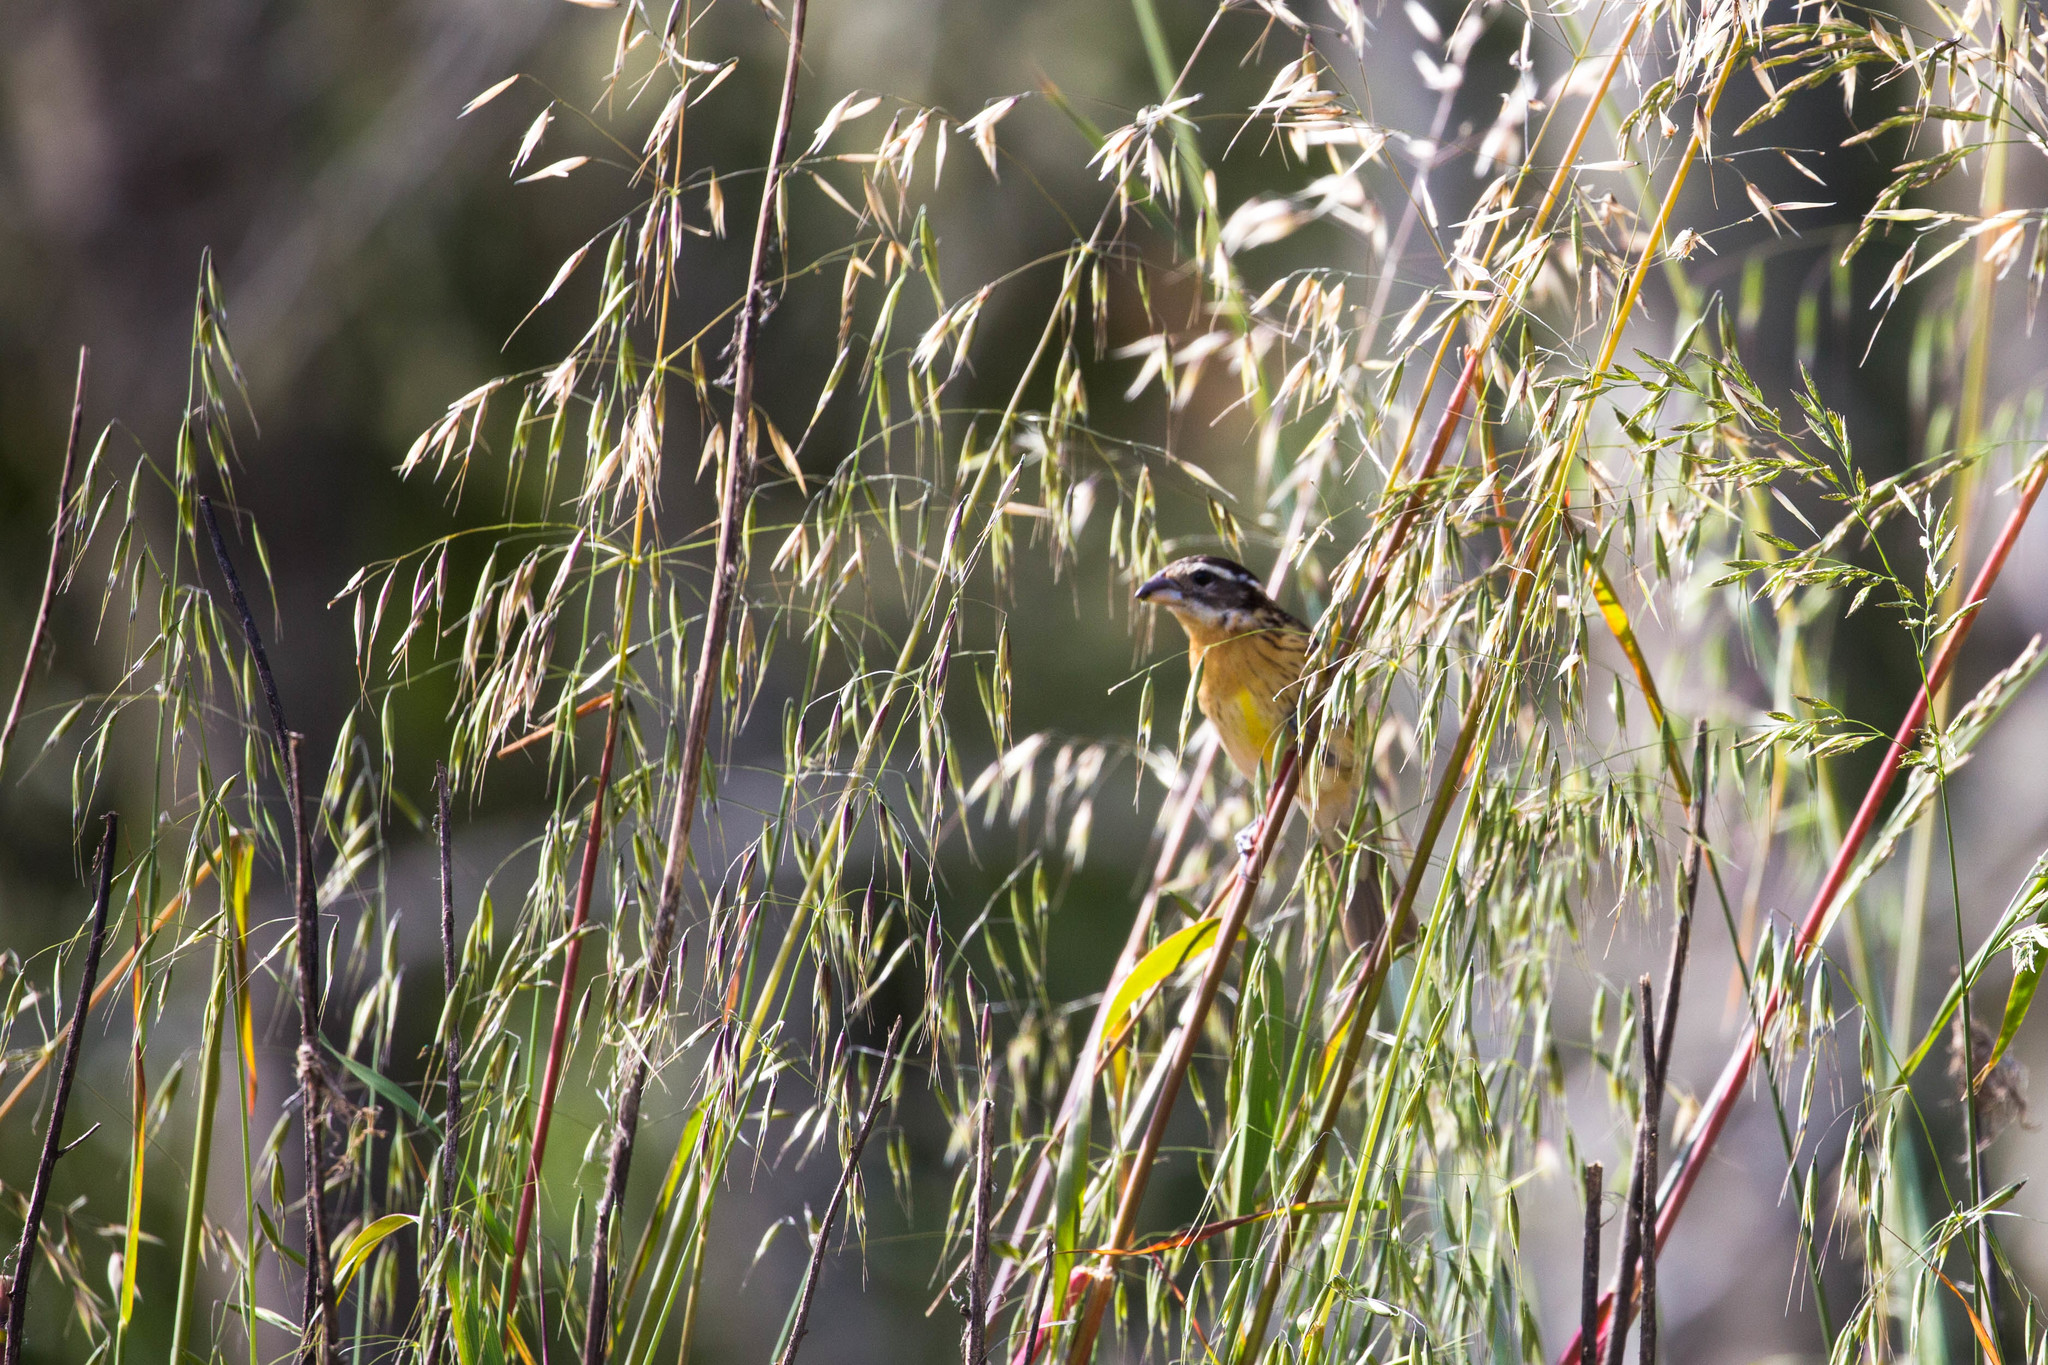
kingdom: Animalia
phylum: Chordata
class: Aves
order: Passeriformes
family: Cardinalidae
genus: Pheucticus
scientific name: Pheucticus melanocephalus
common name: Black-headed grosbeak
